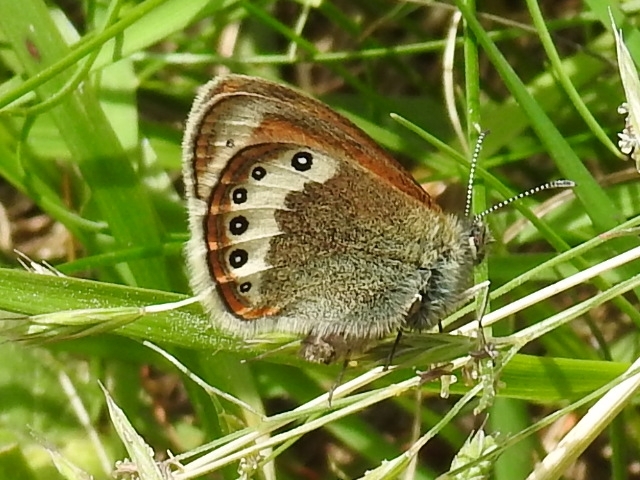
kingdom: Animalia
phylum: Arthropoda
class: Insecta
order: Lepidoptera
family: Nymphalidae
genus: Coenonympha
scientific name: Coenonympha
